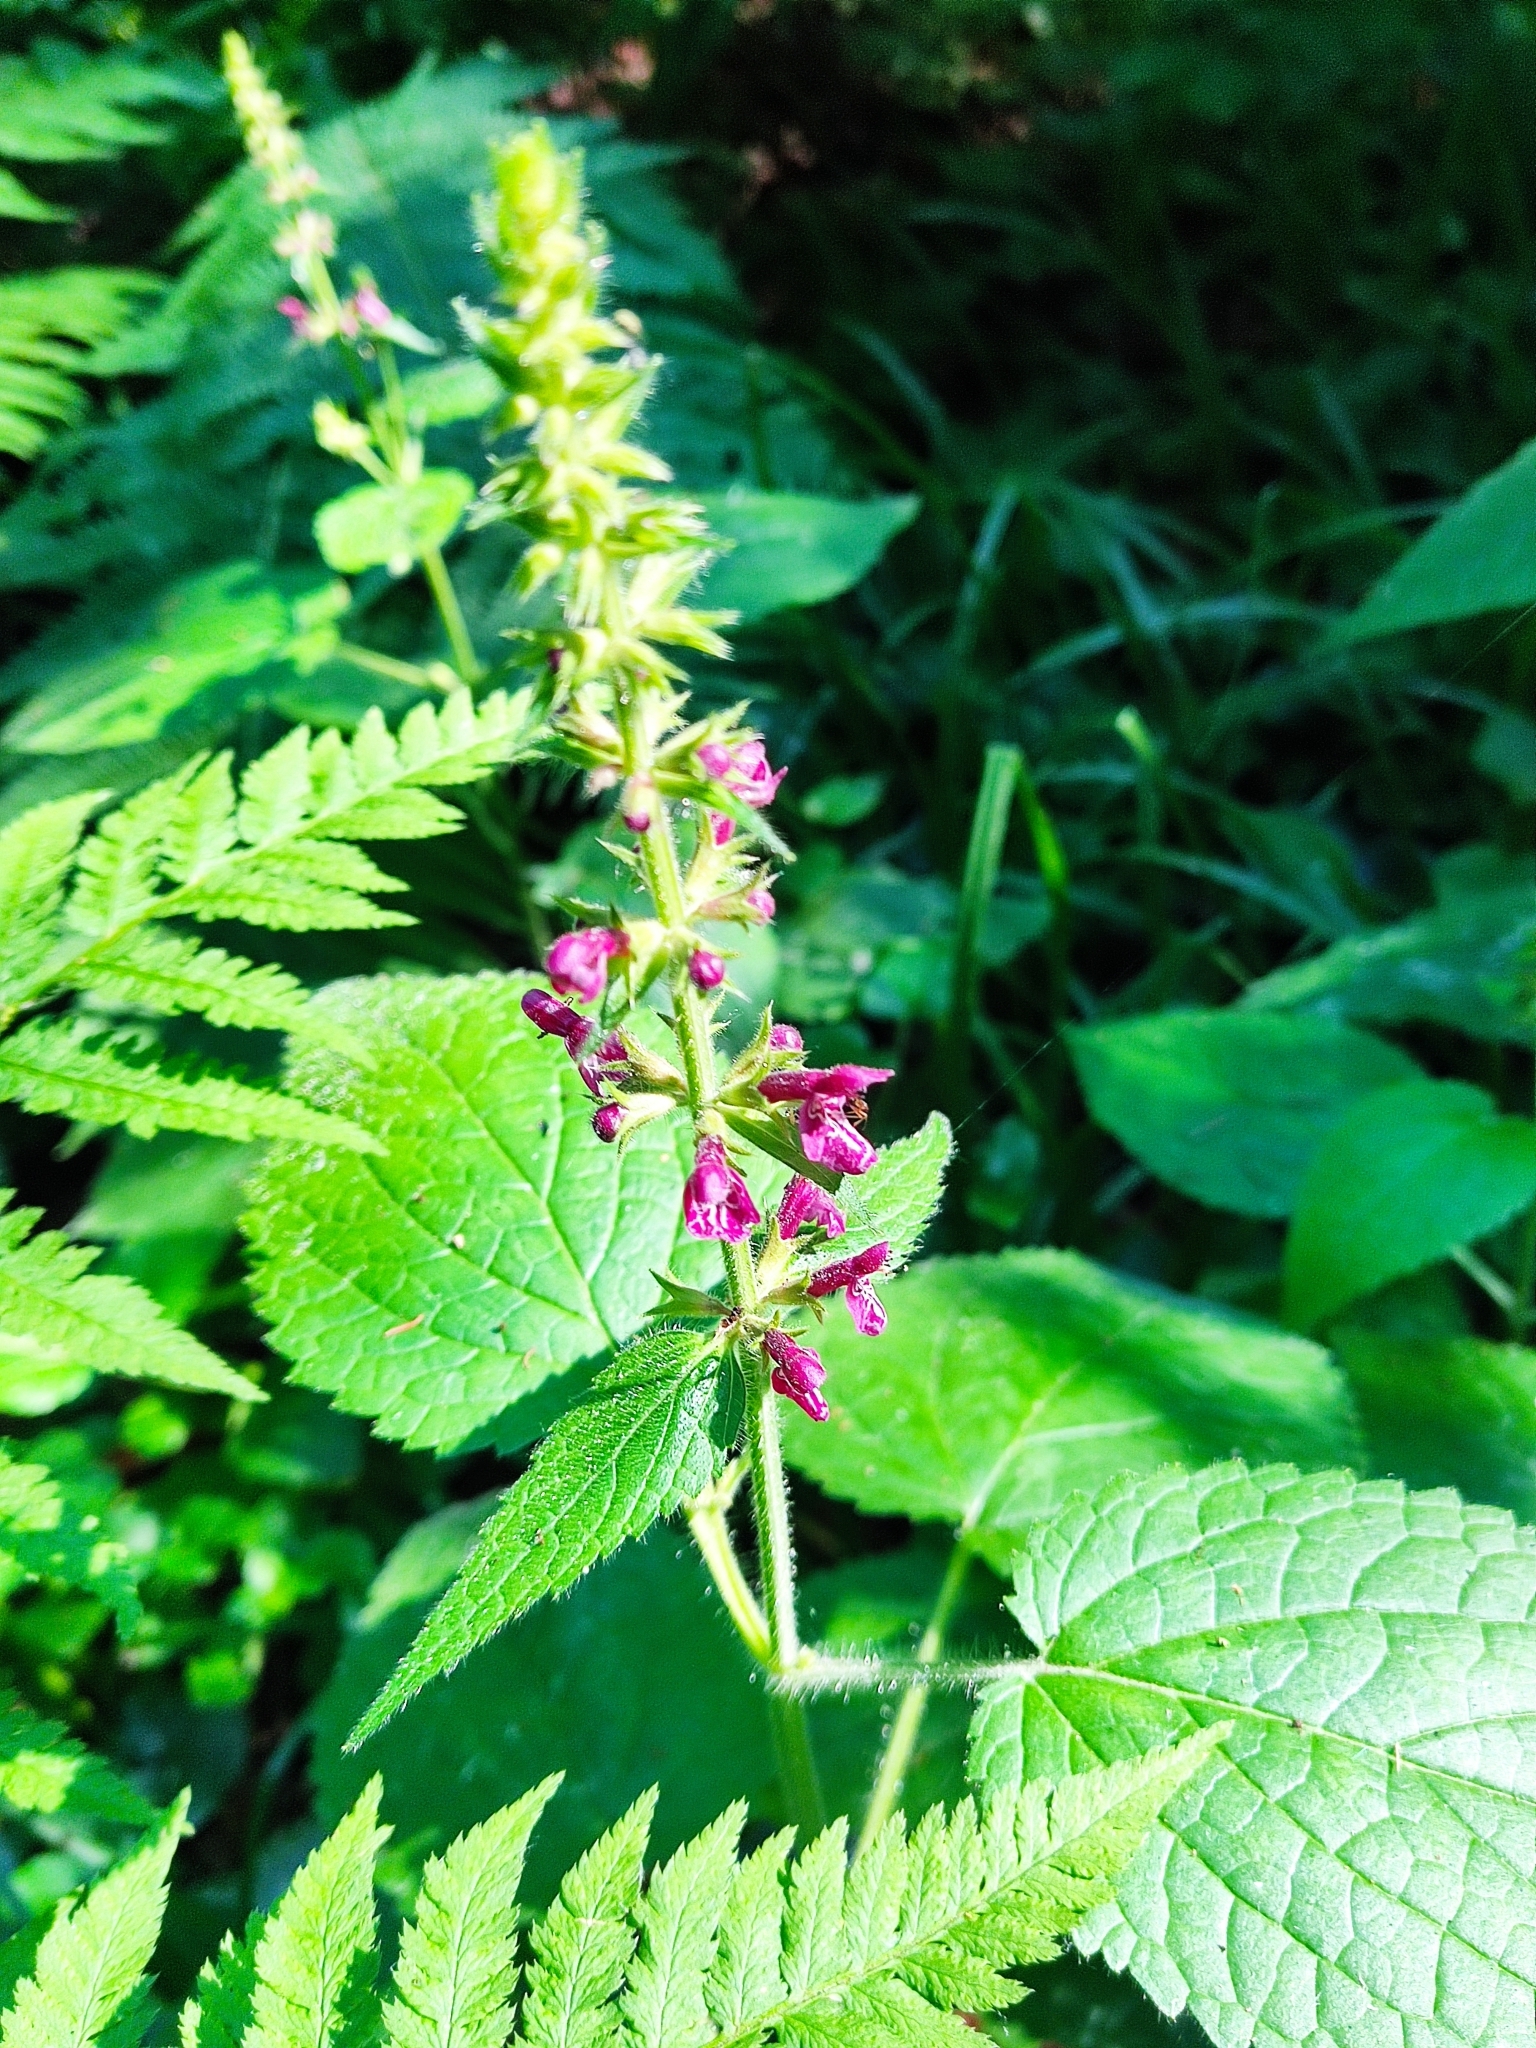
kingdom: Plantae
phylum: Tracheophyta
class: Magnoliopsida
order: Lamiales
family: Lamiaceae
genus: Stachys
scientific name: Stachys sylvatica
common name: Hedge woundwort
